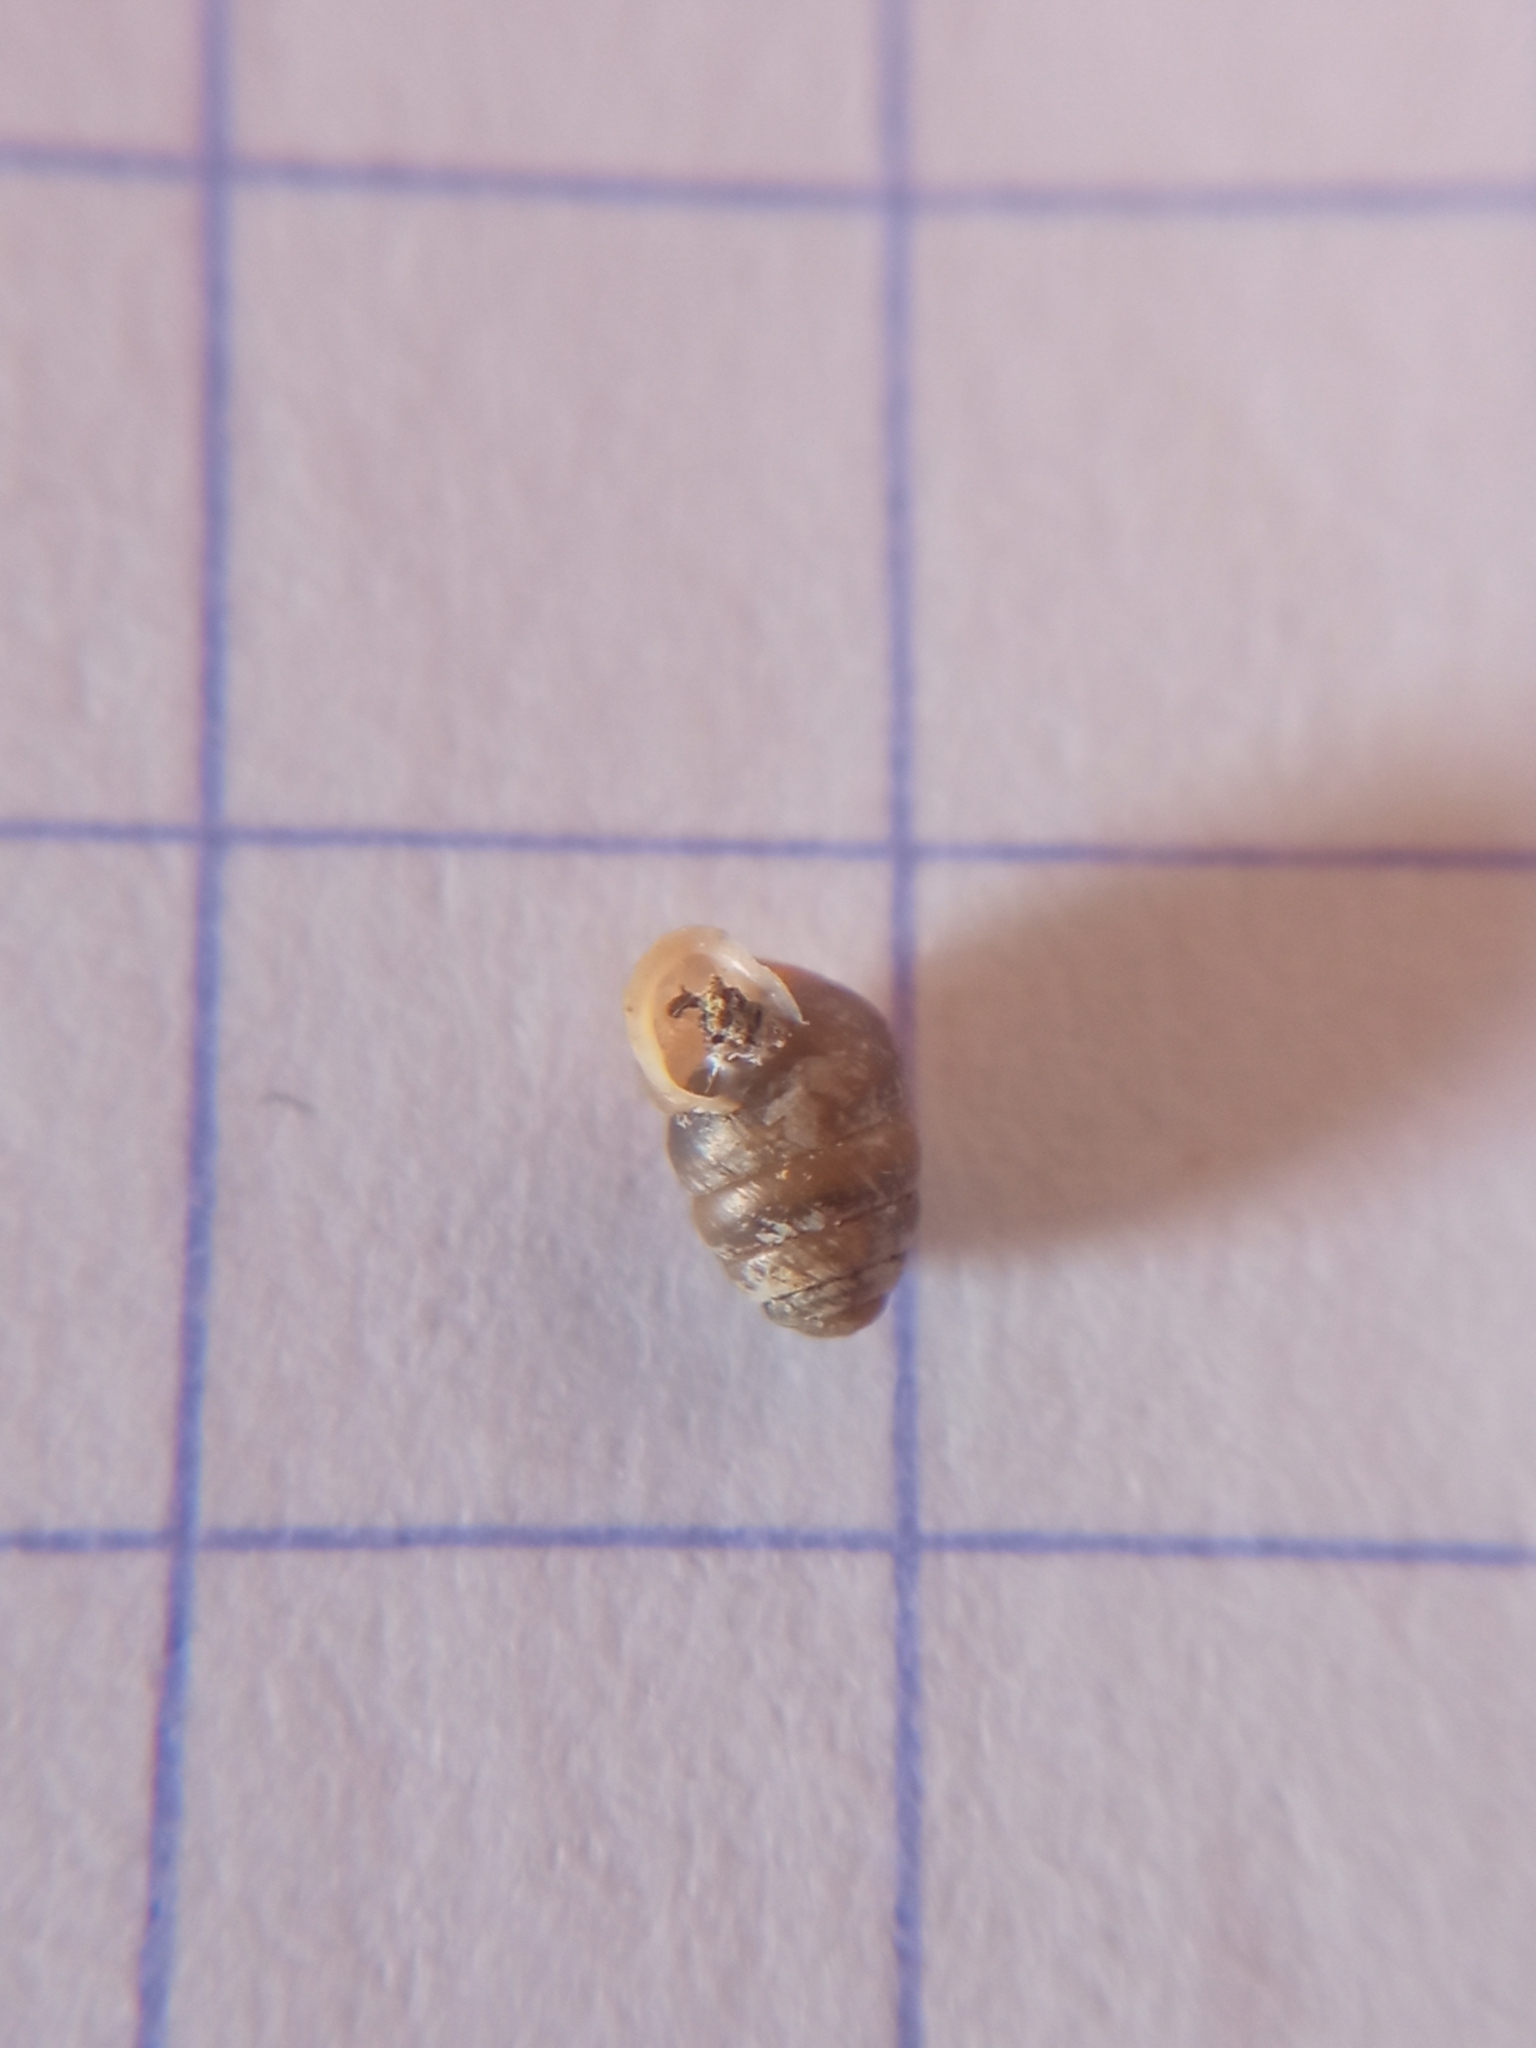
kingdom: Animalia
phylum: Mollusca
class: Gastropoda
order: Stylommatophora
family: Lauriidae
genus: Lauria
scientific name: Lauria cylindracea
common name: Common chrysalis snail
